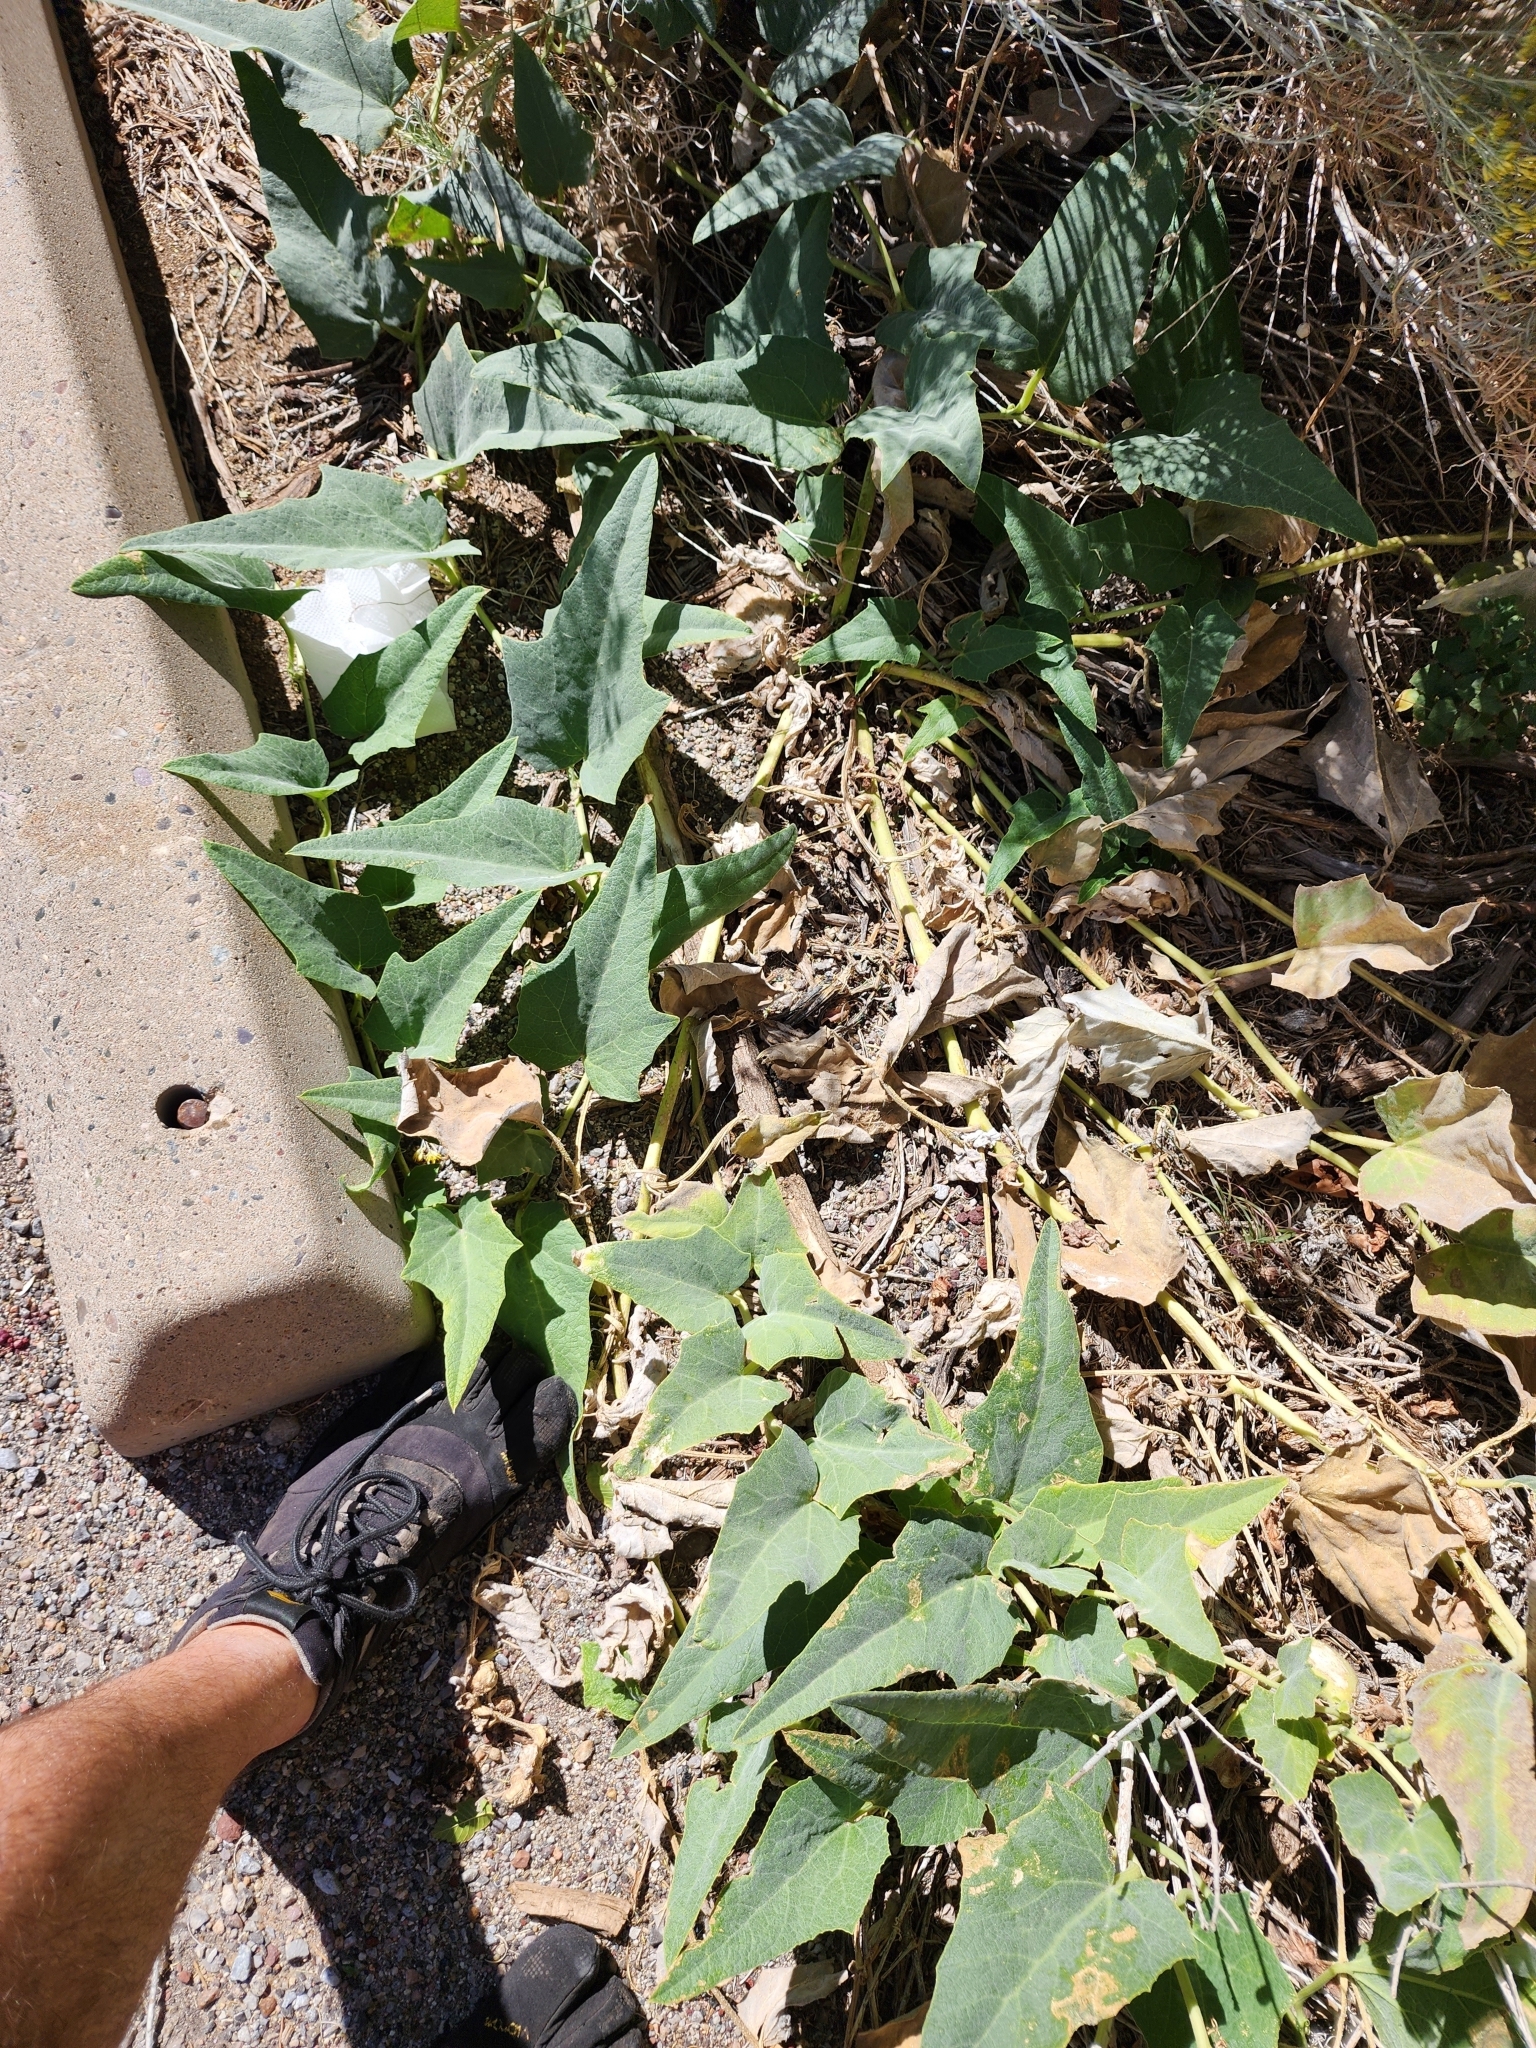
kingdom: Plantae
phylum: Tracheophyta
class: Magnoliopsida
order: Cucurbitales
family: Cucurbitaceae
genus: Cucurbita
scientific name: Cucurbita foetidissima
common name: Buffalo gourd
